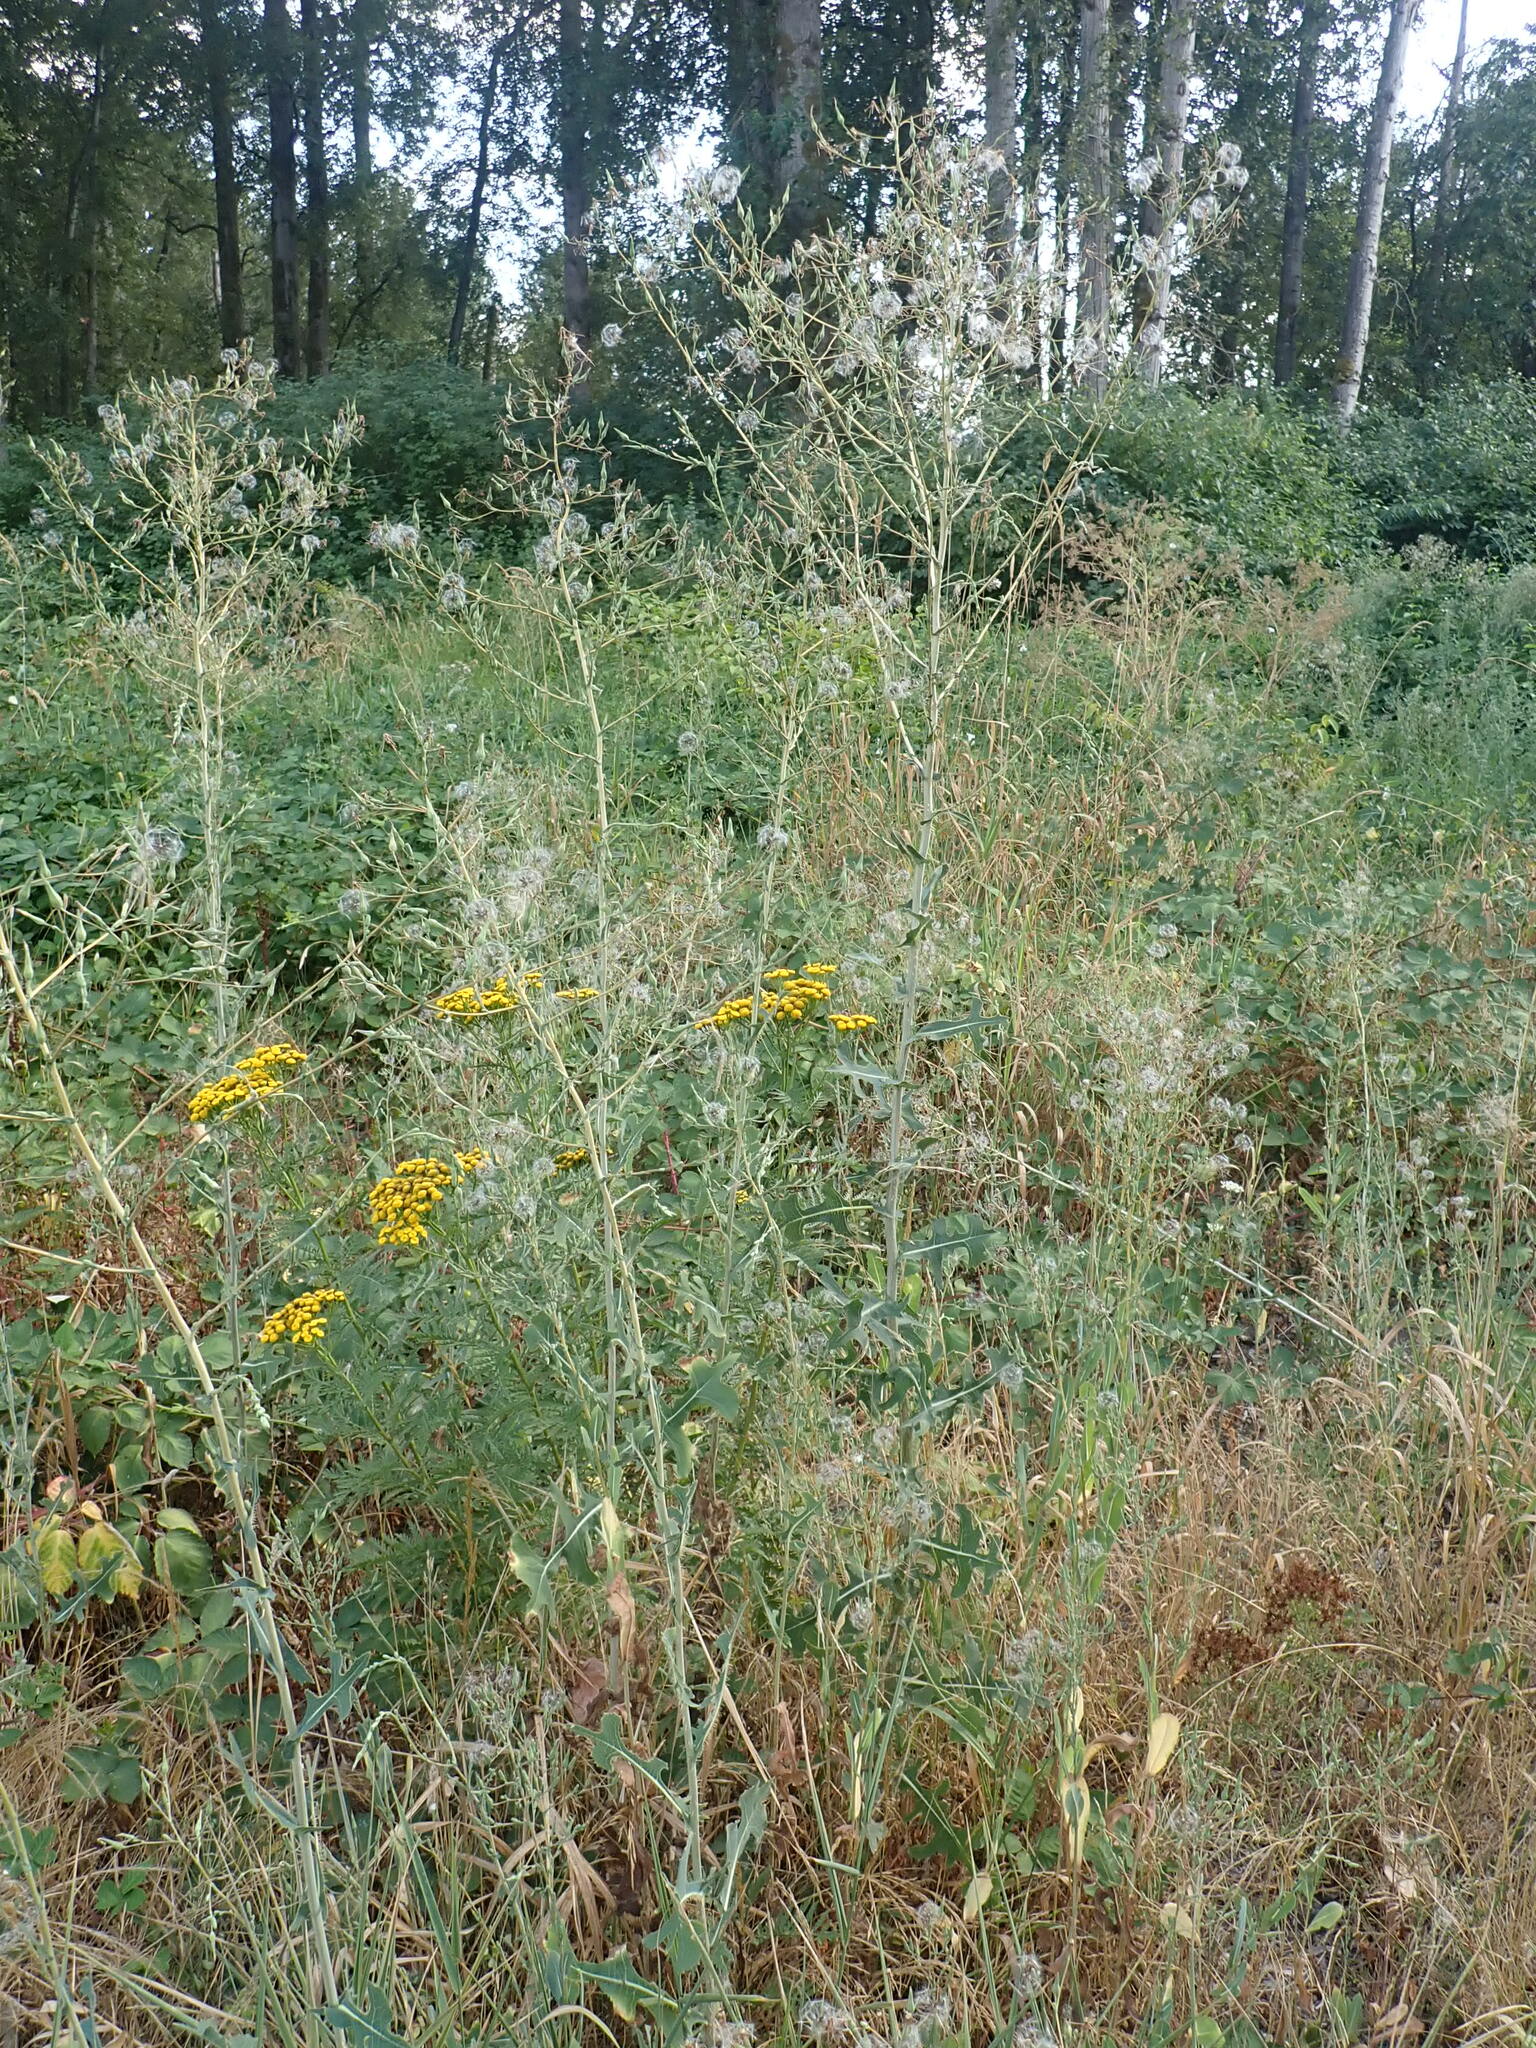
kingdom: Plantae
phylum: Tracheophyta
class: Magnoliopsida
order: Asterales
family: Asteraceae
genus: Lactuca
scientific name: Lactuca serriola
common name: Prickly lettuce
